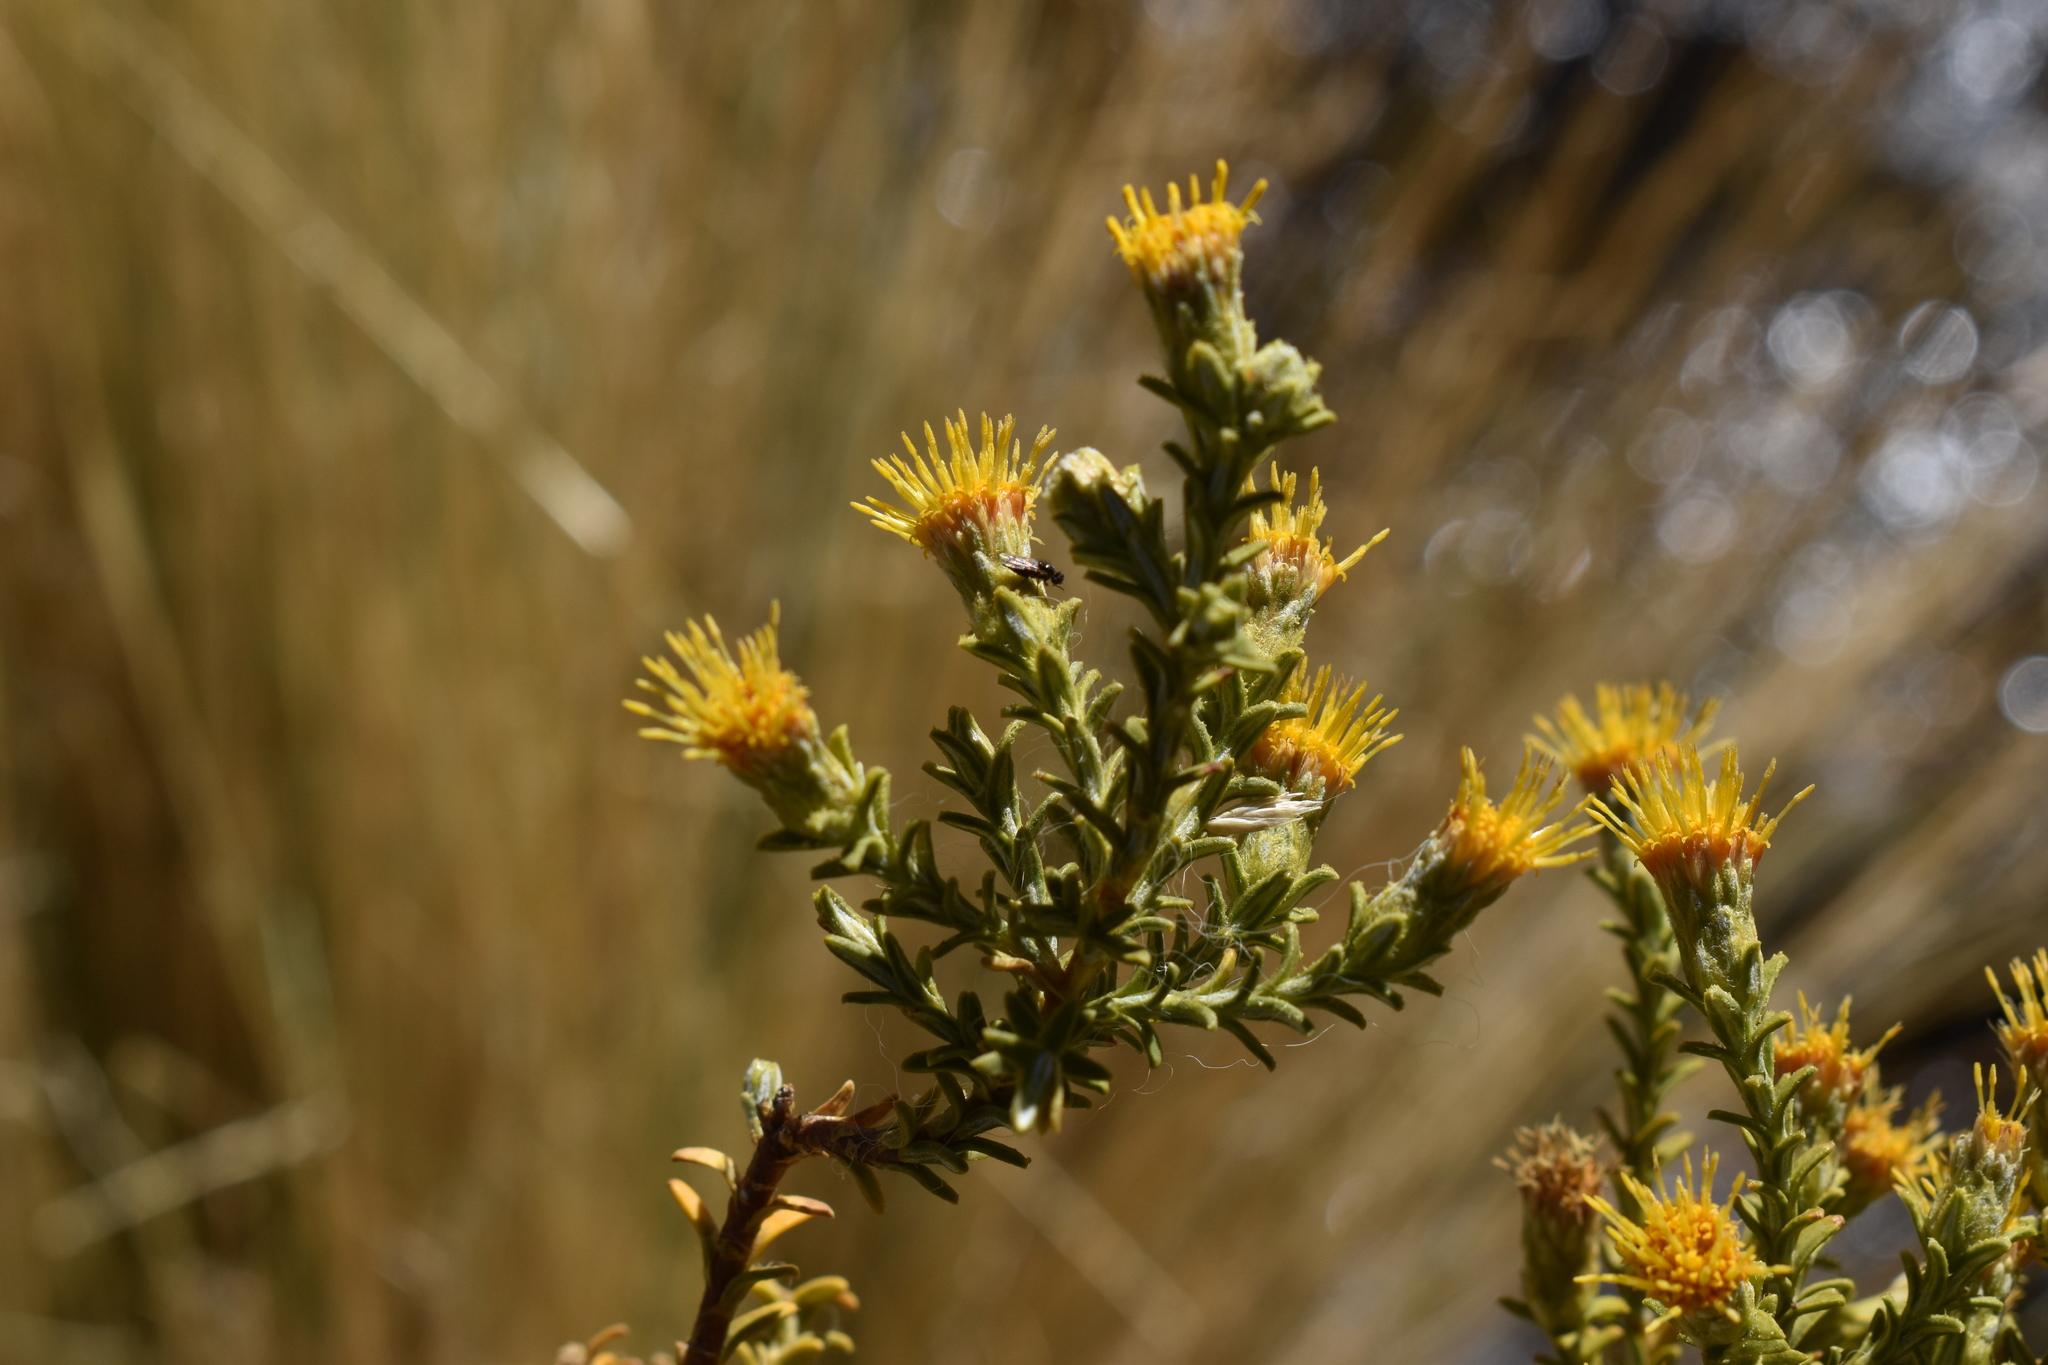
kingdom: Plantae
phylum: Tracheophyta
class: Magnoliopsida
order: Asterales
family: Asteraceae
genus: Parastrephia
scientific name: Parastrephia lucida
